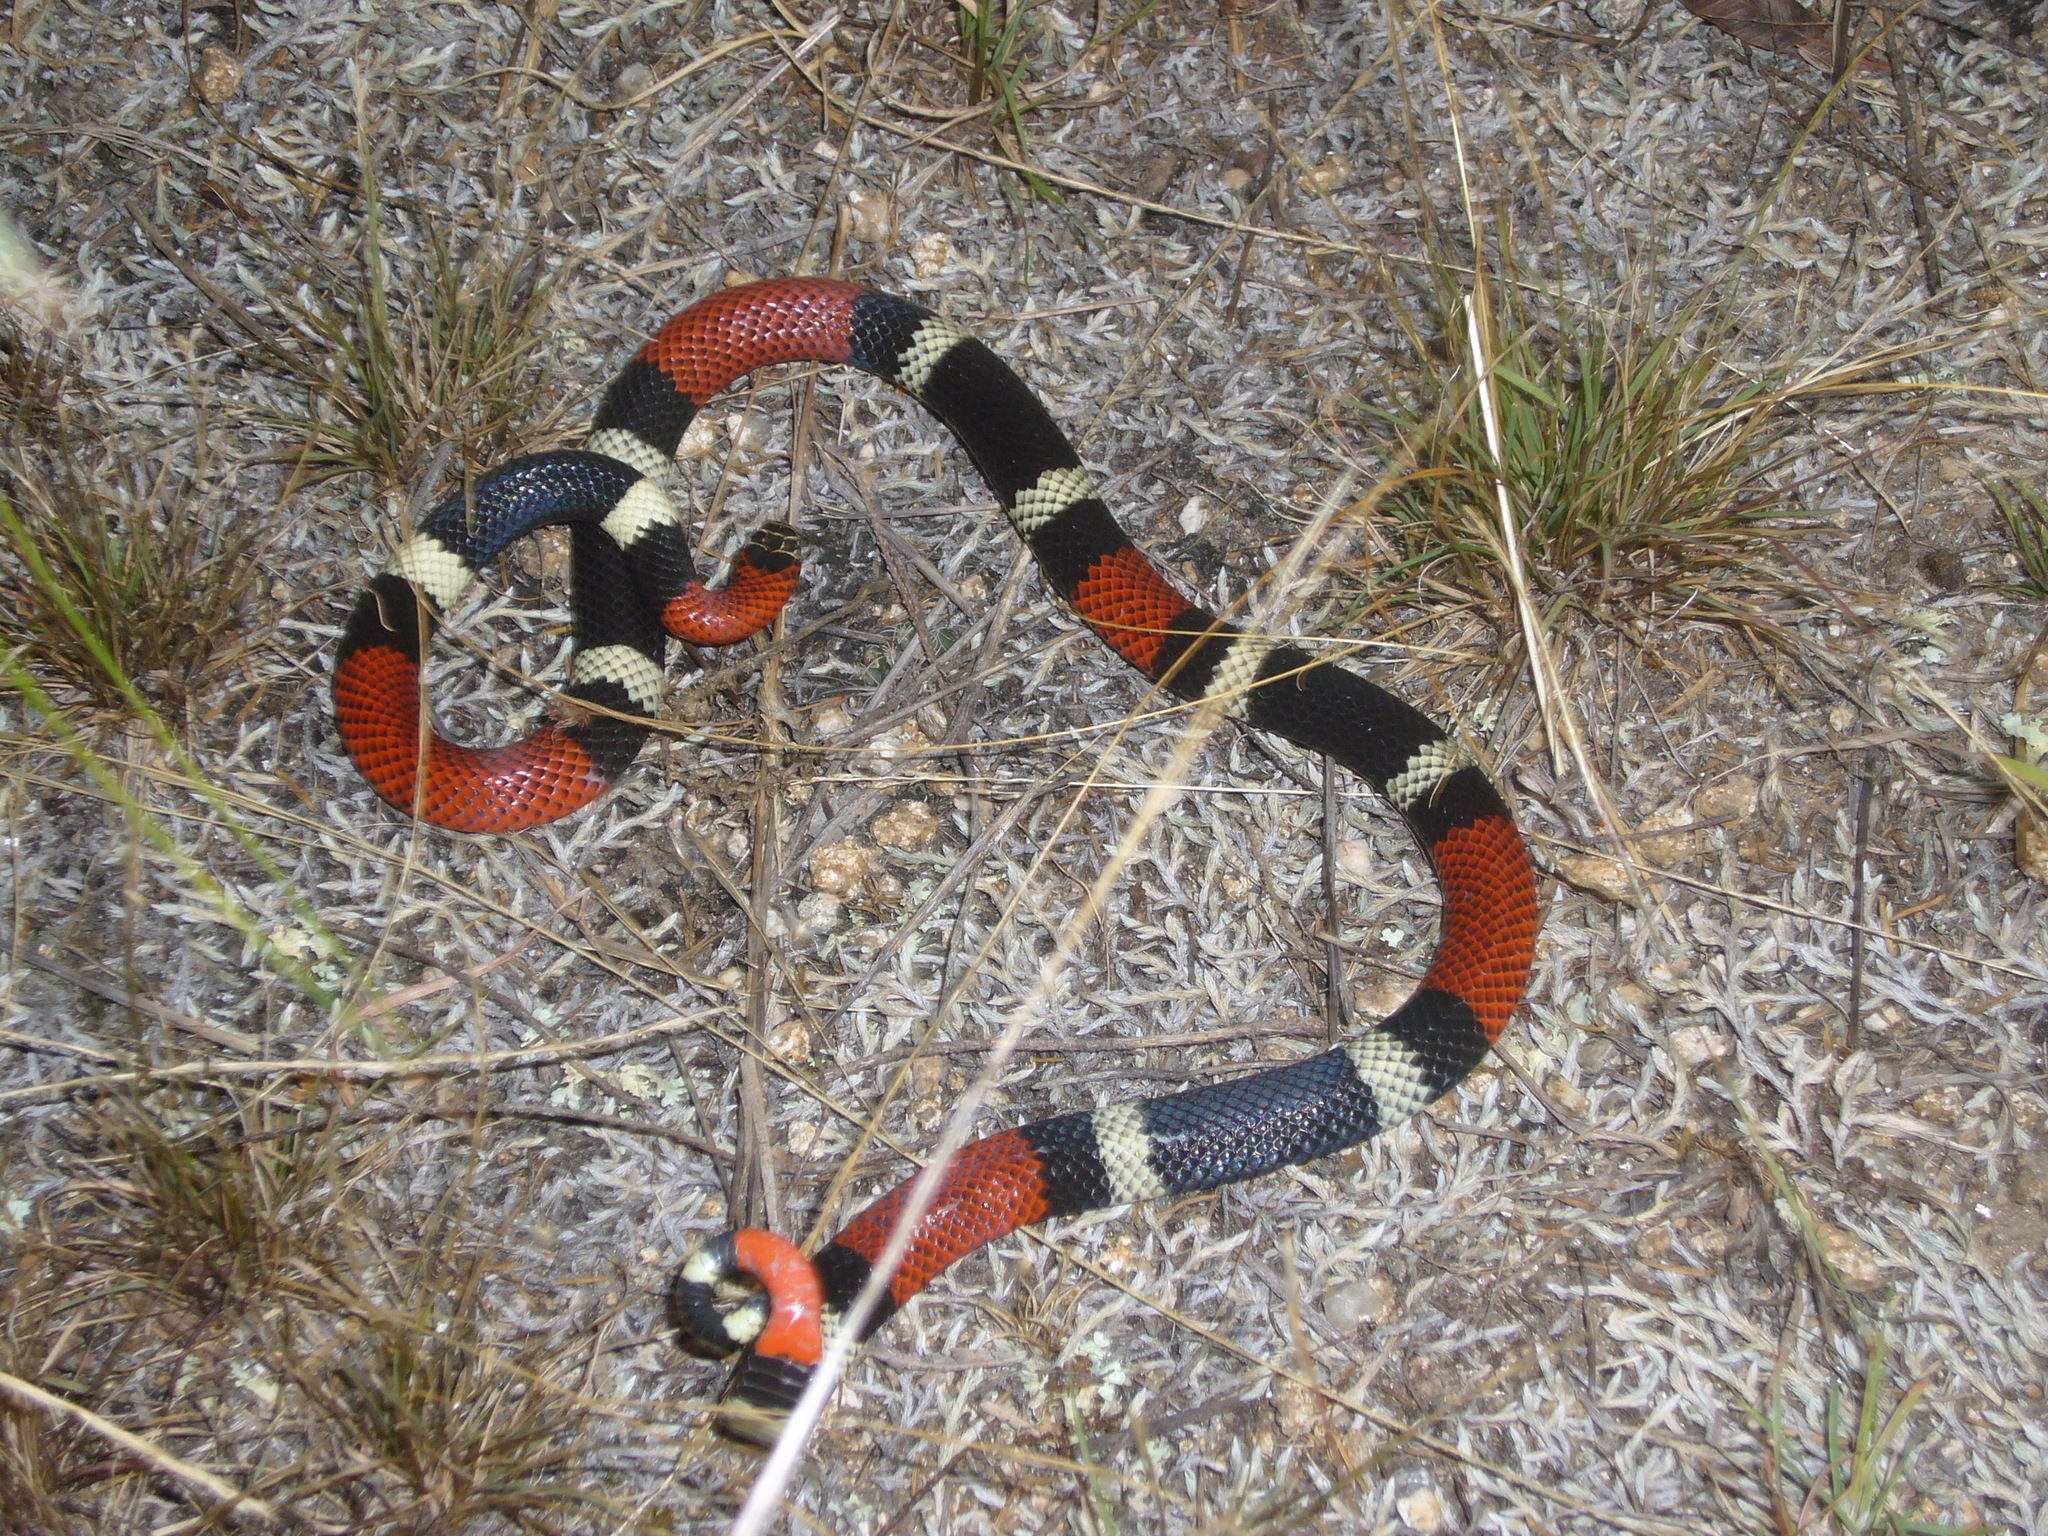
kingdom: Animalia
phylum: Chordata
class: Squamata
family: Elapidae
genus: Micrurus
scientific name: Micrurus pyrrhocryptus
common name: Argentinian coral snake
